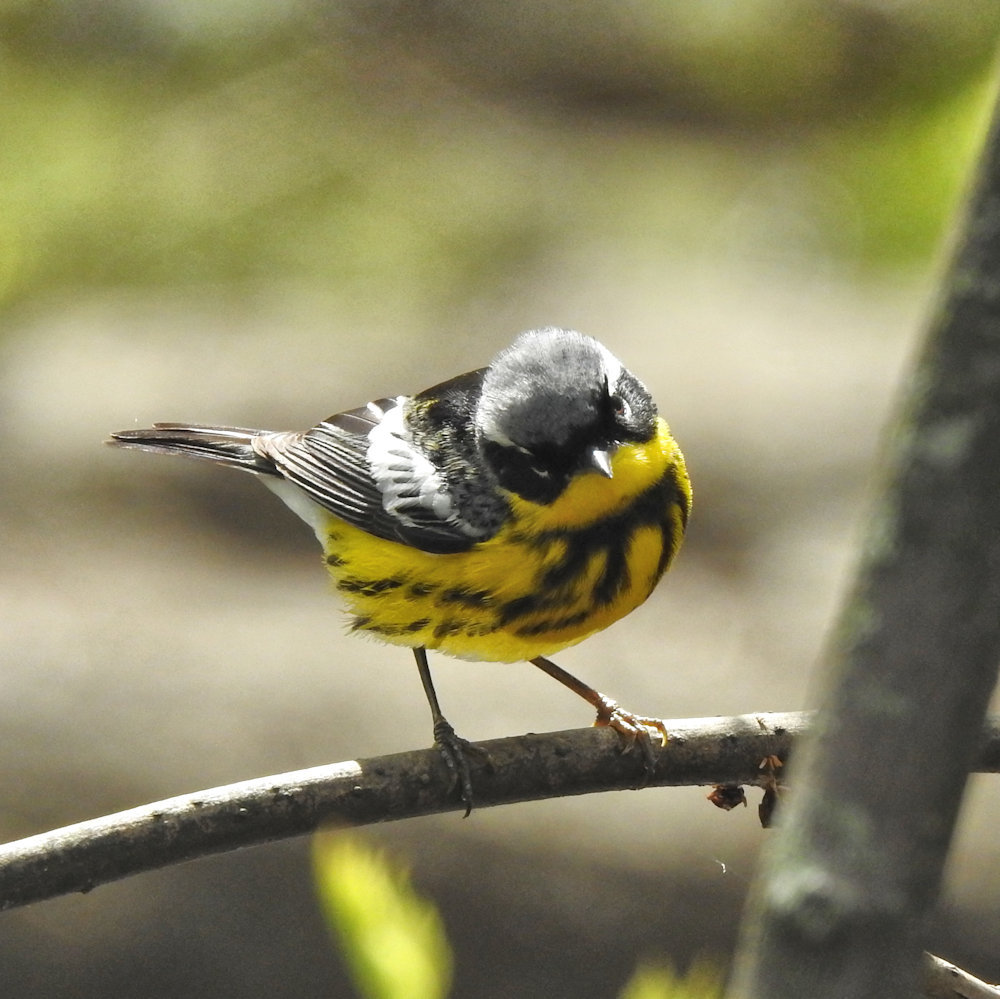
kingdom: Animalia
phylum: Chordata
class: Aves
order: Passeriformes
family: Parulidae
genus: Setophaga
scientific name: Setophaga magnolia
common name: Magnolia warbler
